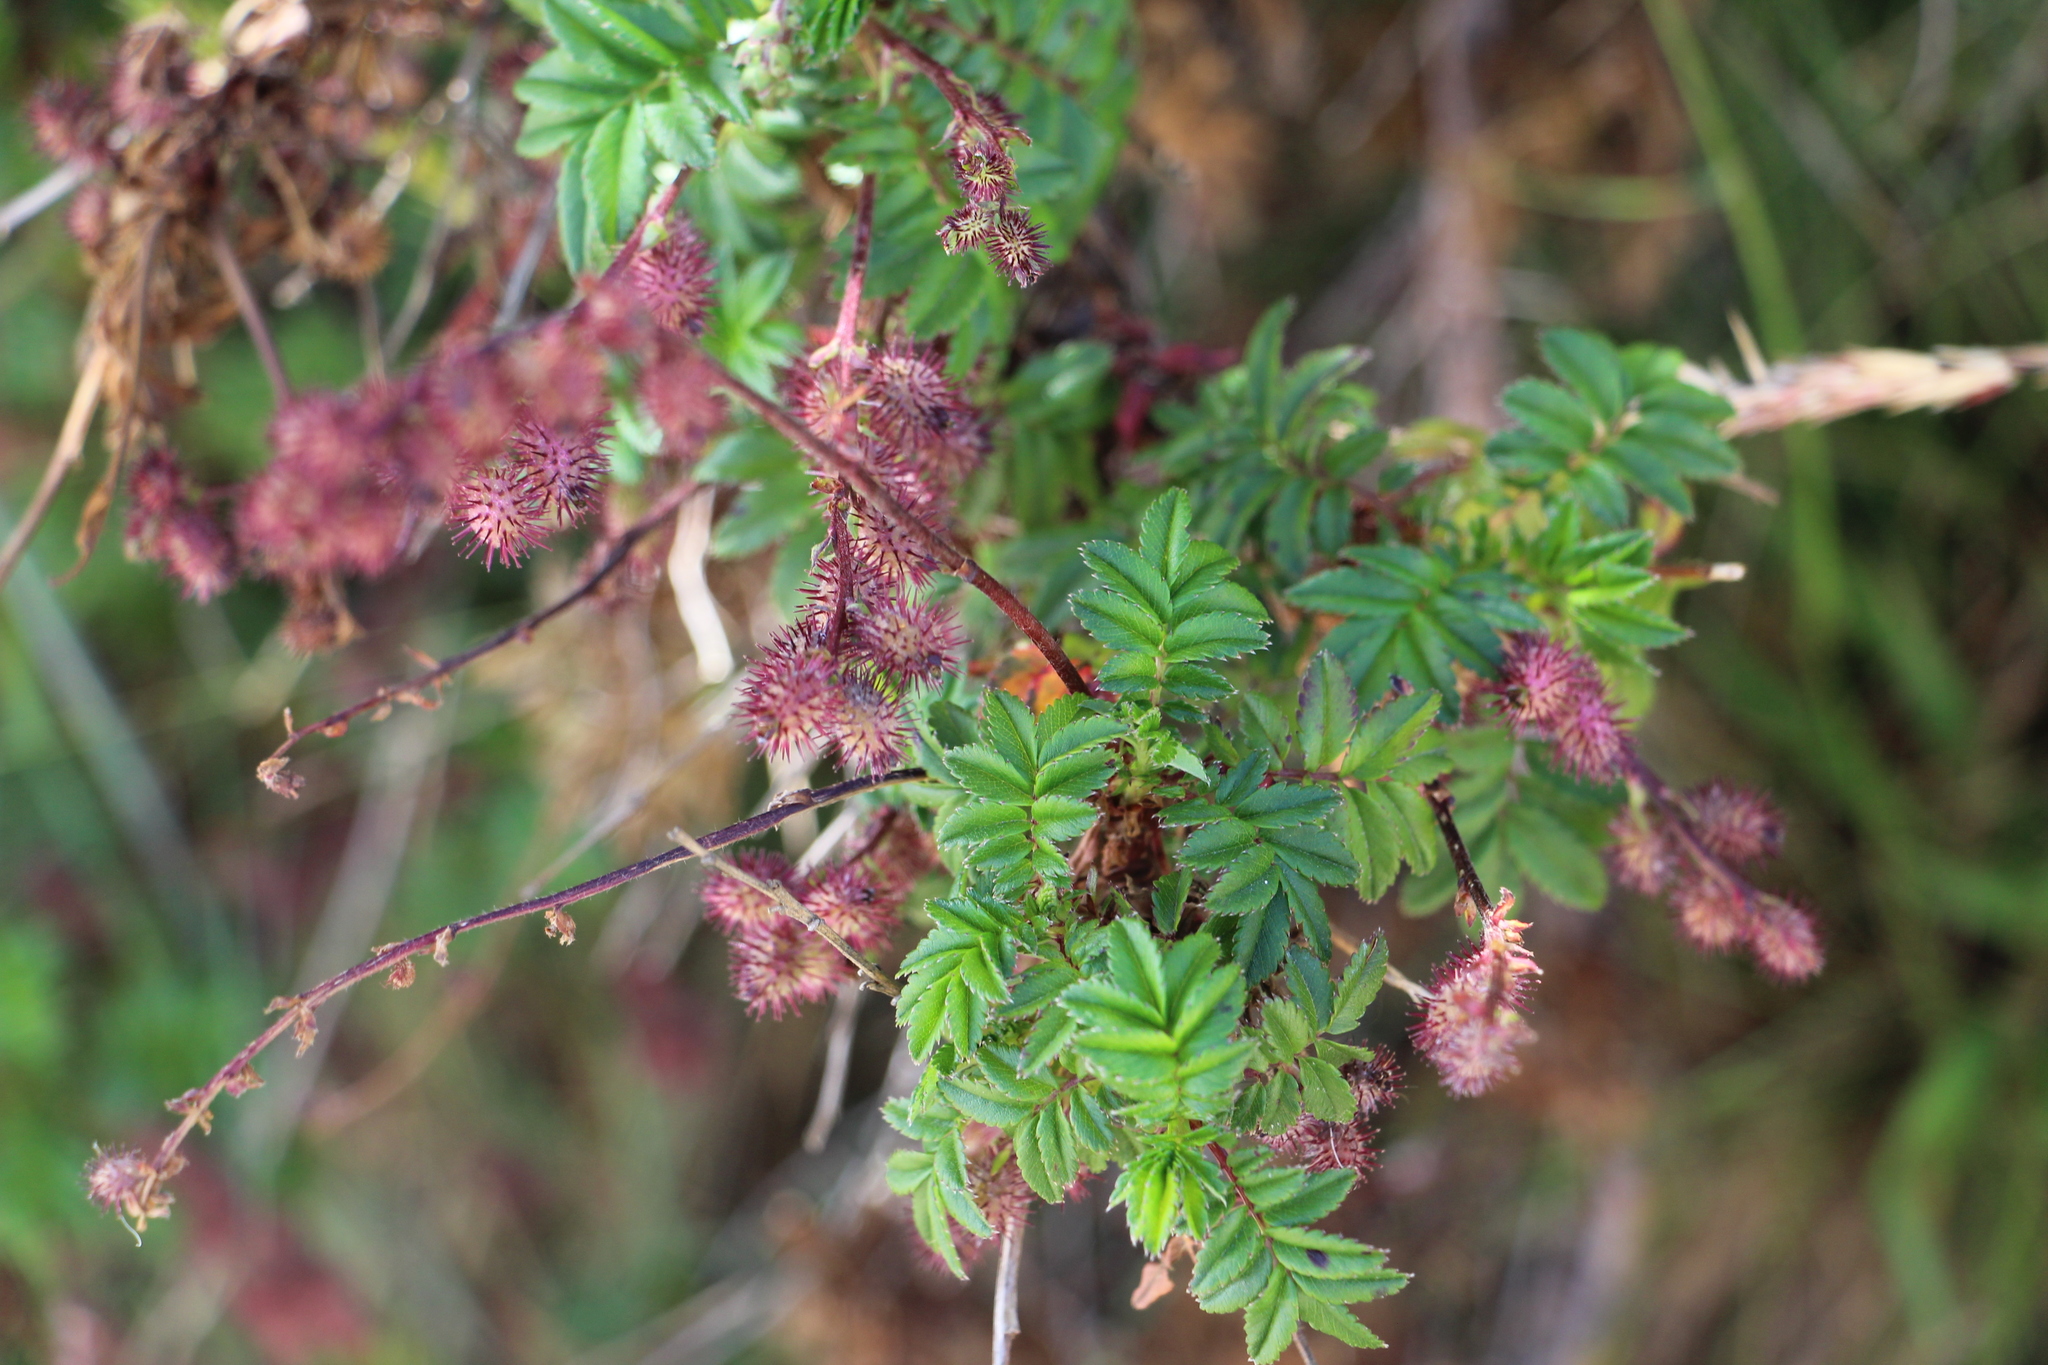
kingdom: Plantae
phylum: Tracheophyta
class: Magnoliopsida
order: Rosales
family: Rosaceae
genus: Acaena
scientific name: Acaena elongata
